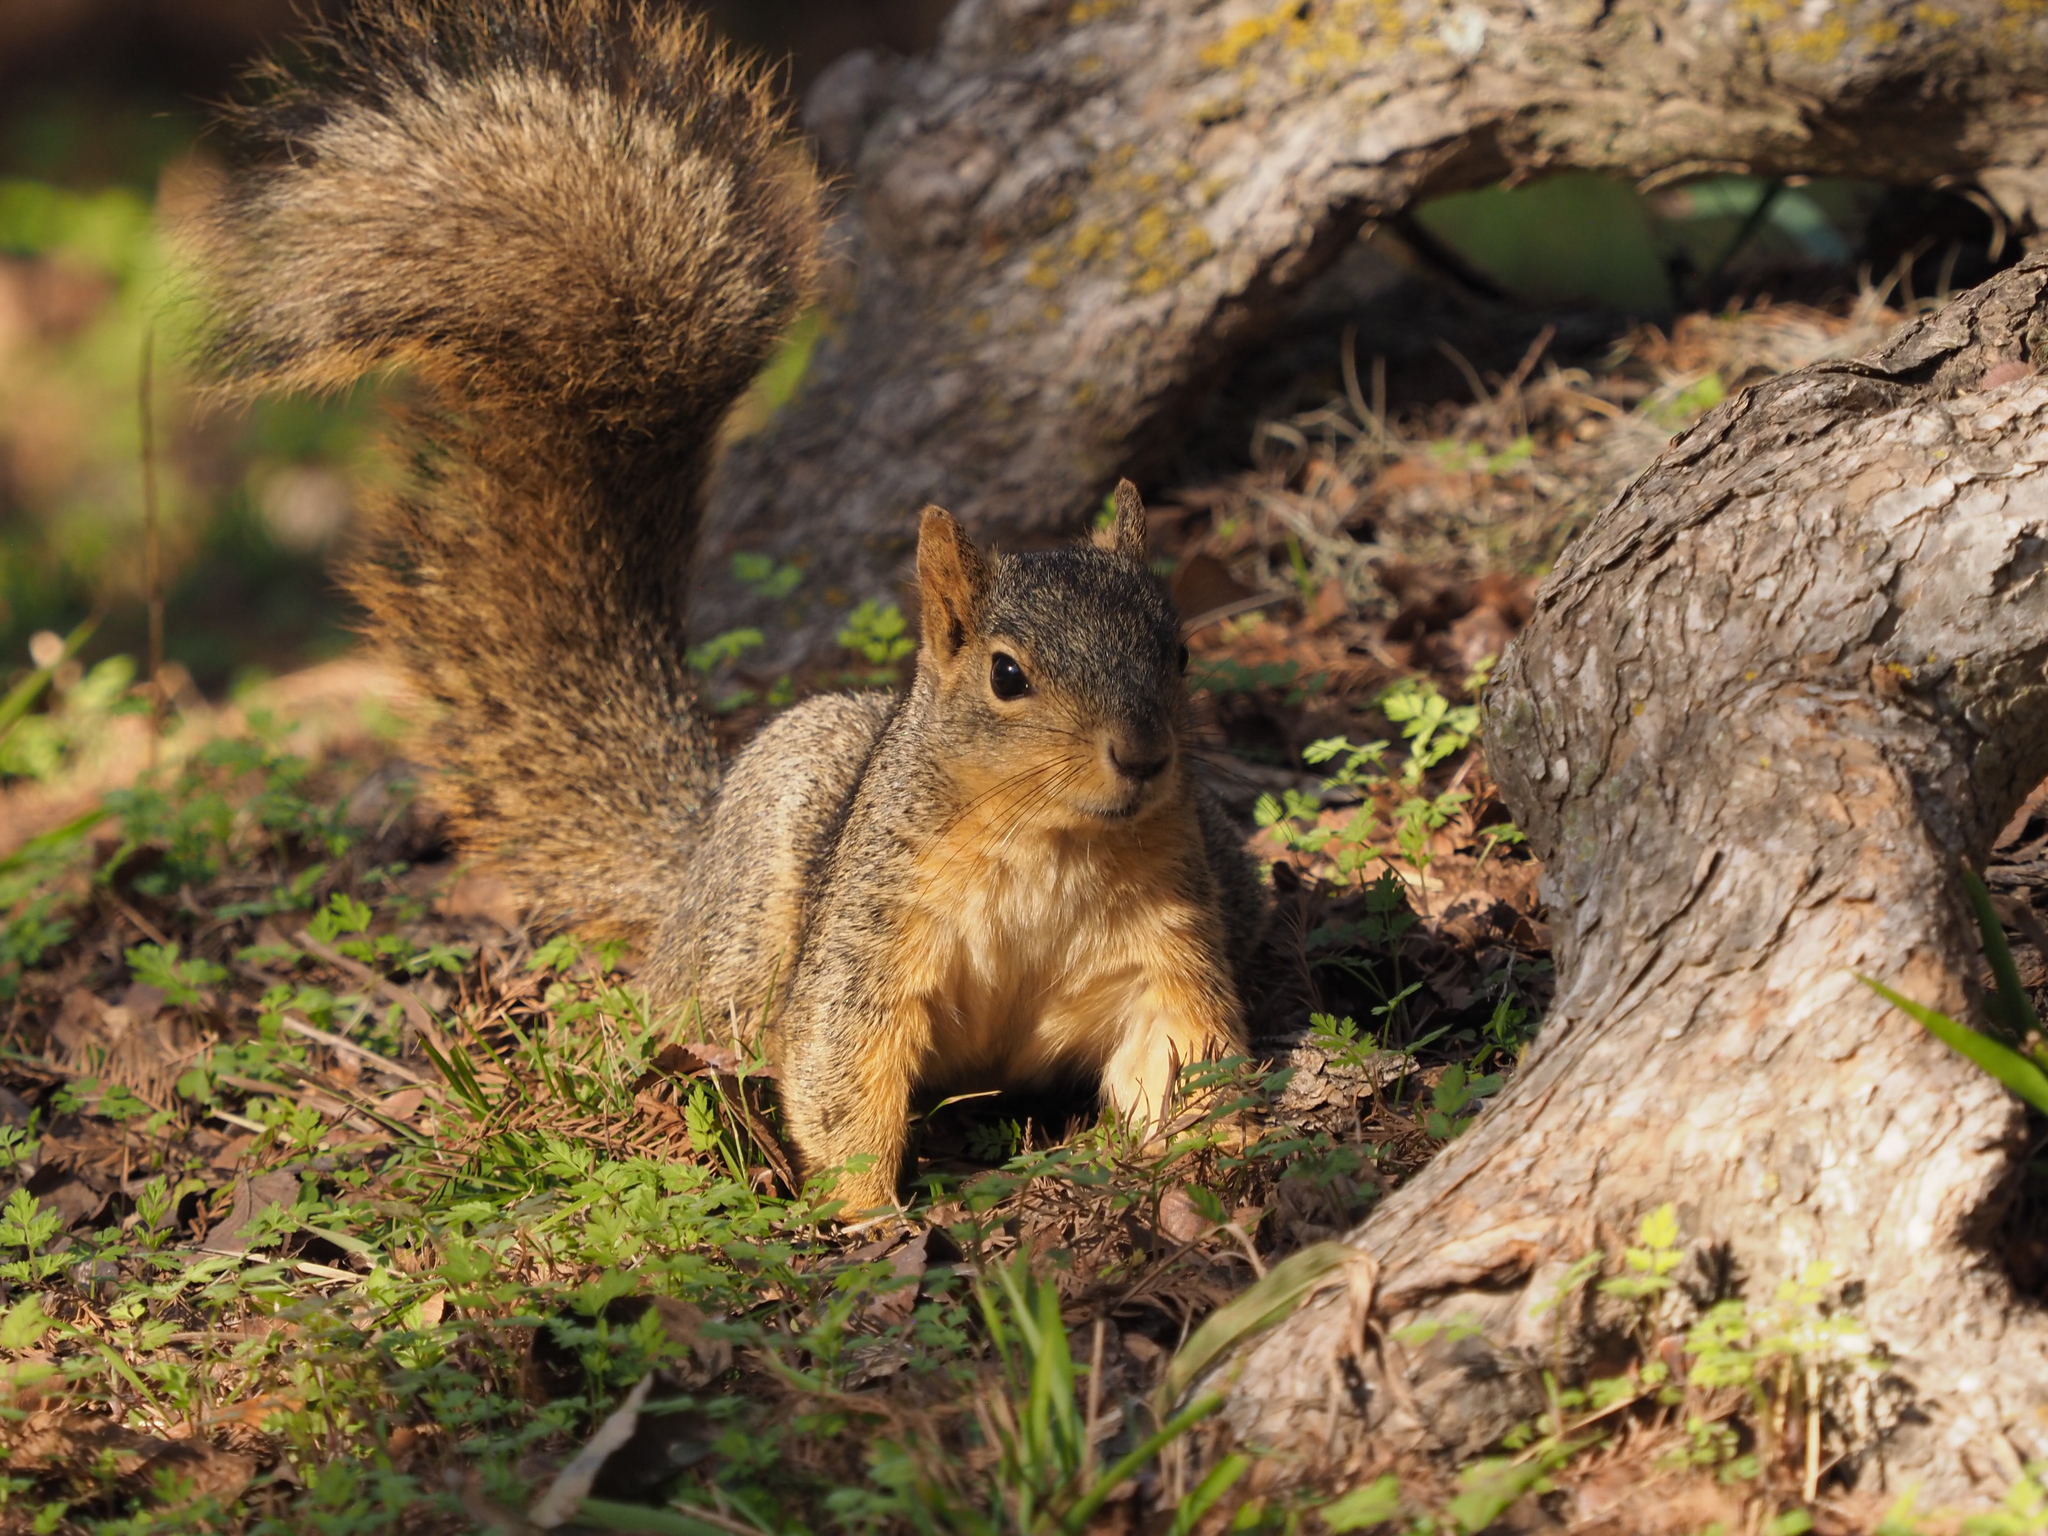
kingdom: Animalia
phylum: Chordata
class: Mammalia
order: Rodentia
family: Sciuridae
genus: Sciurus
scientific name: Sciurus niger
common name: Fox squirrel
